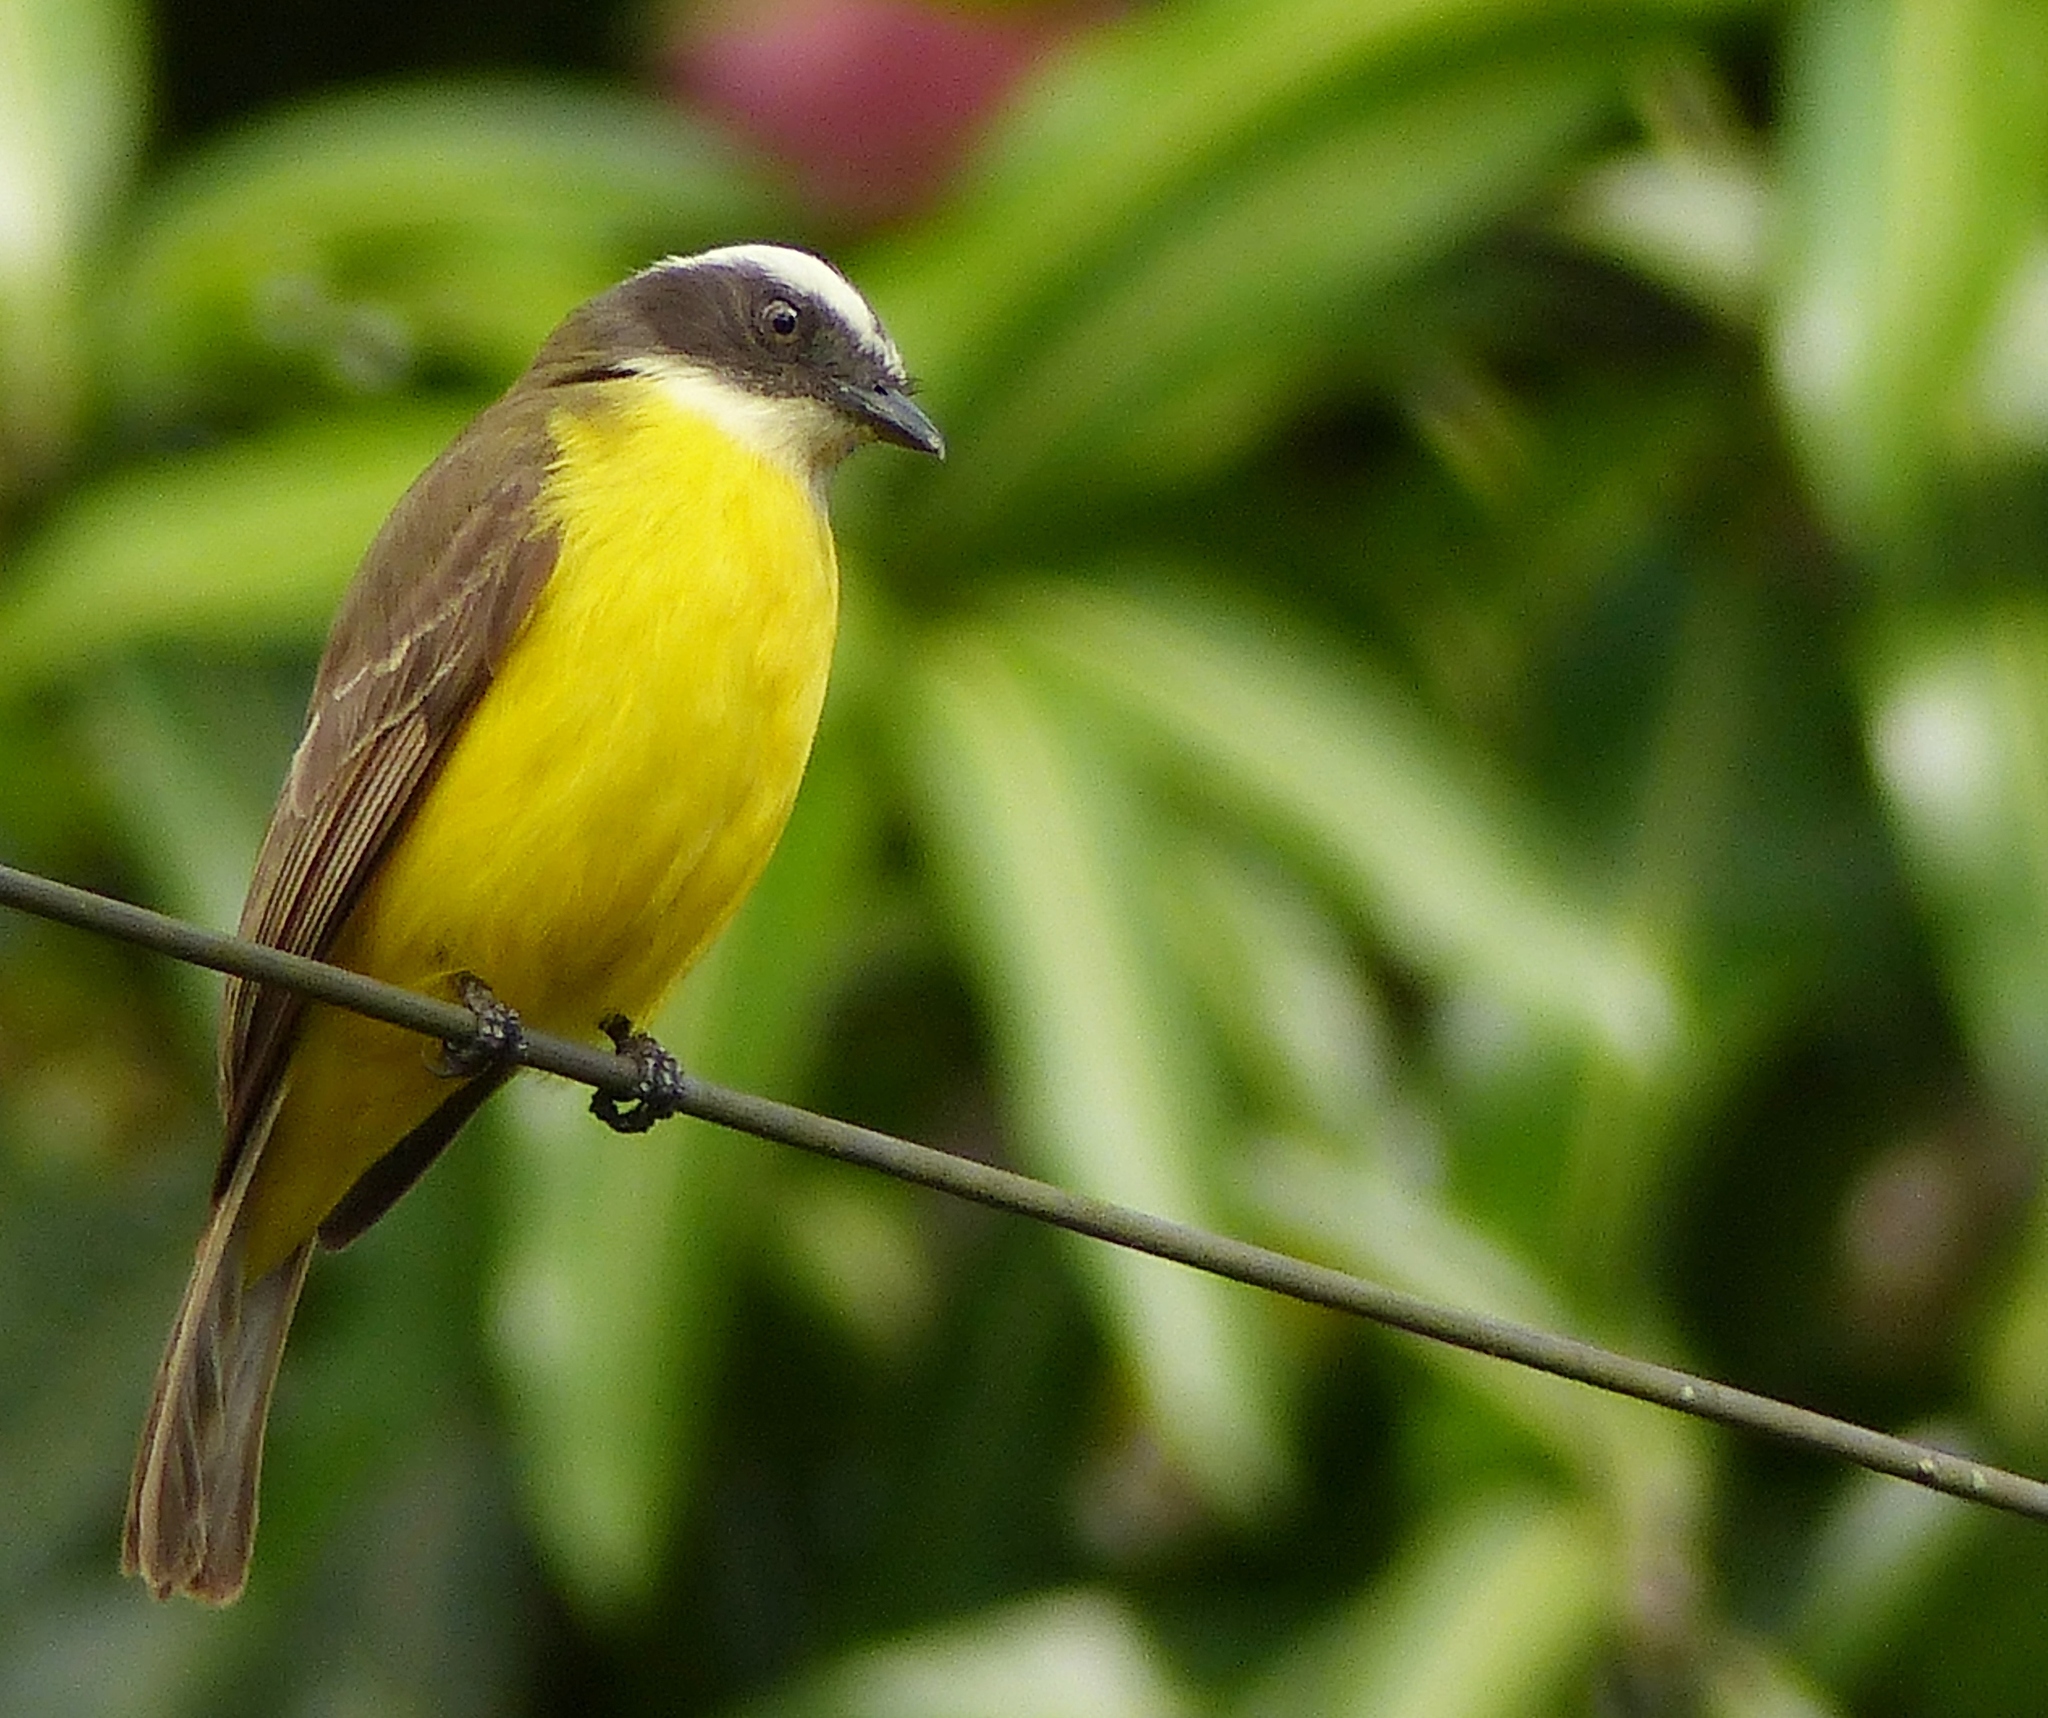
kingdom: Animalia
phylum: Chordata
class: Aves
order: Passeriformes
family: Tyrannidae
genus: Myiozetetes
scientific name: Myiozetetes similis
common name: Social flycatcher
